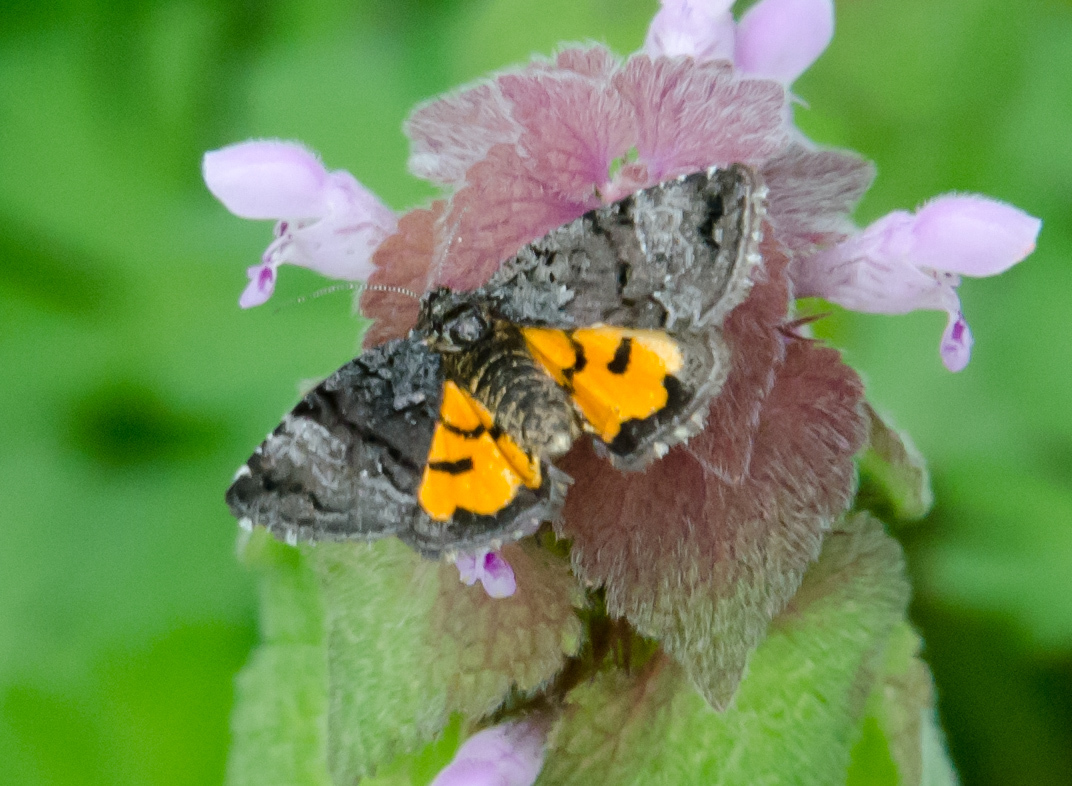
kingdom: Animalia
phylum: Arthropoda
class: Insecta
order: Lepidoptera
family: Noctuidae
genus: Annaphila
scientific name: Annaphila decia
